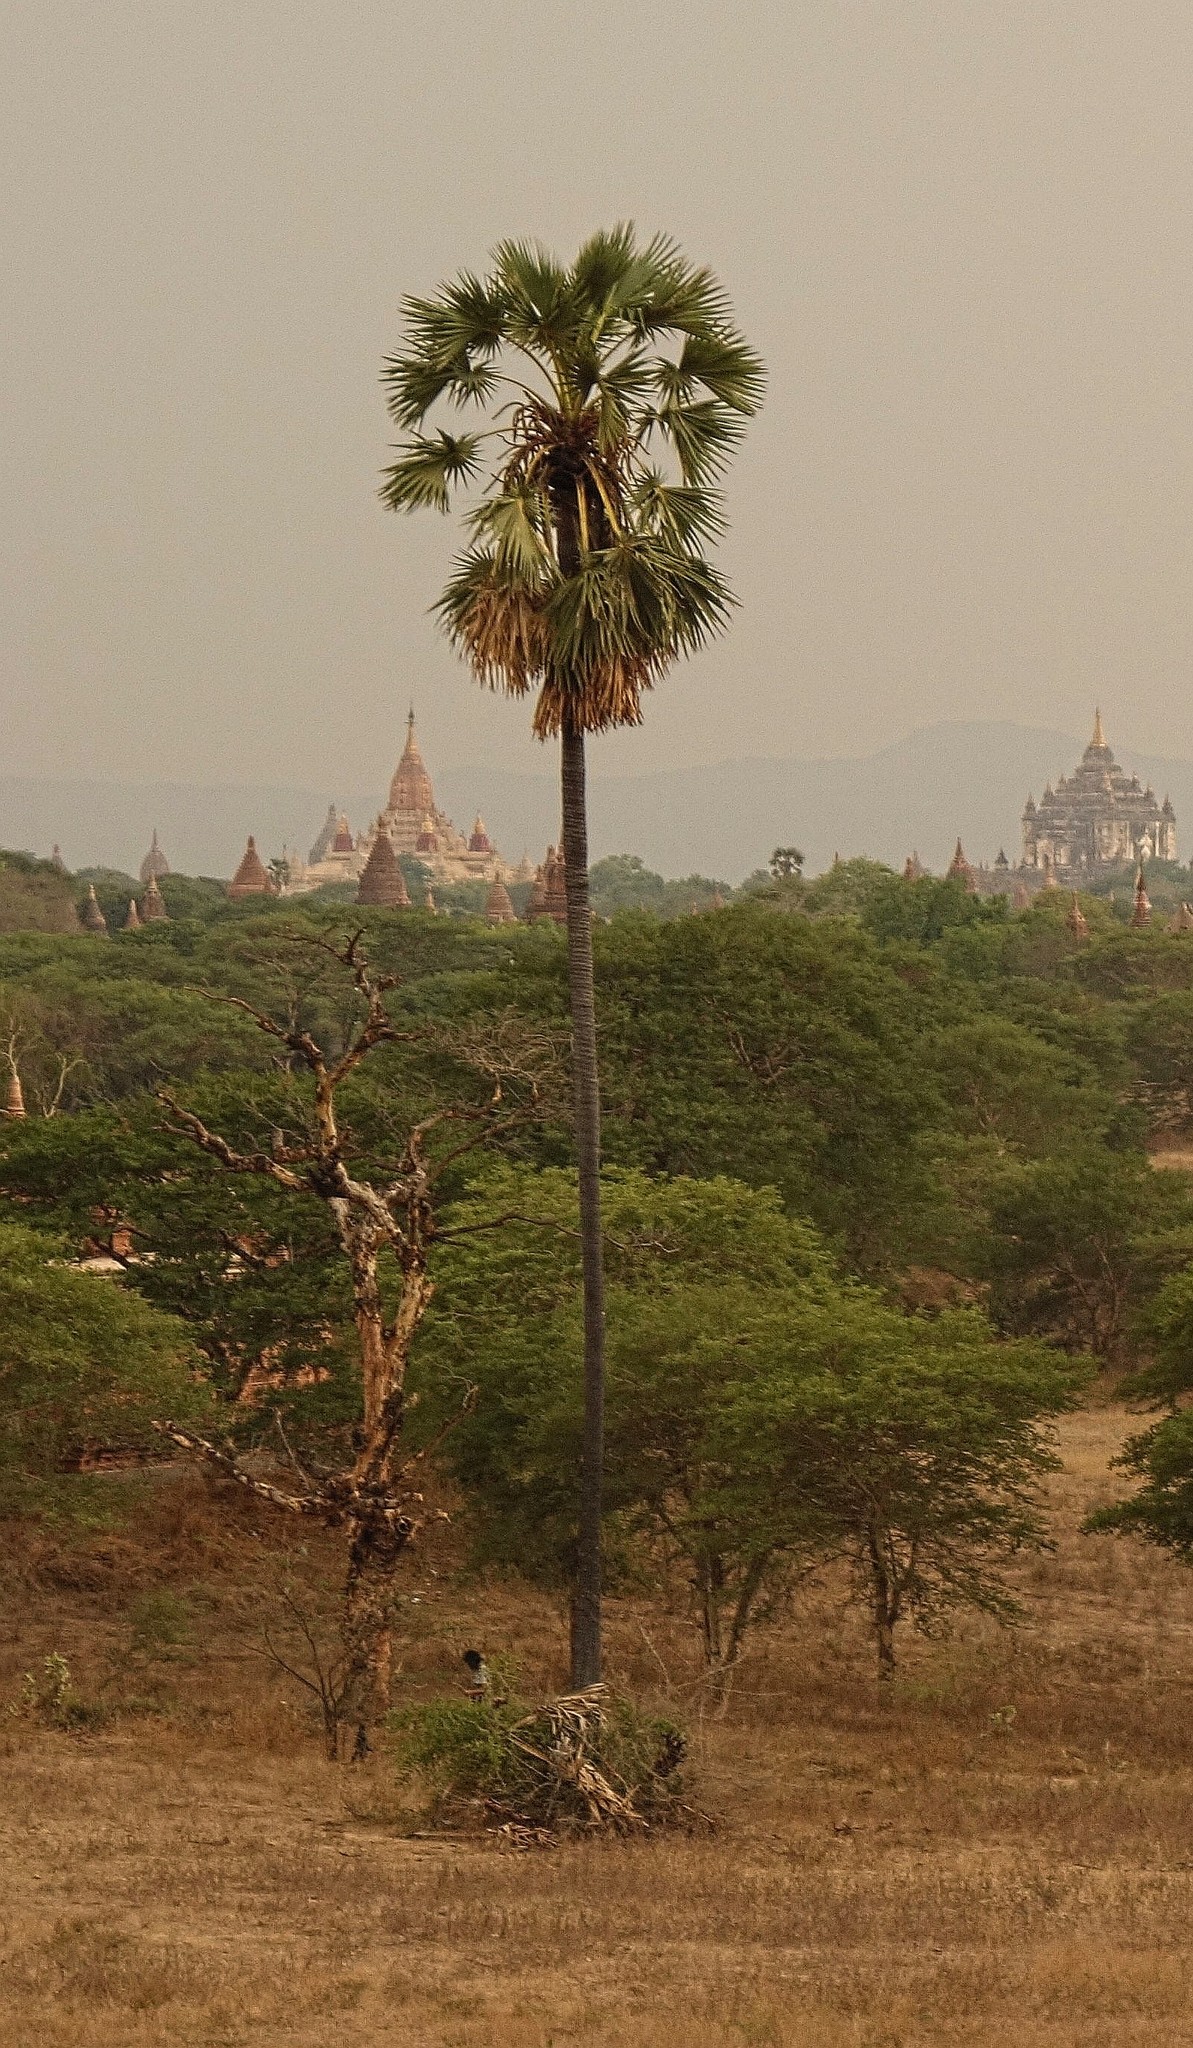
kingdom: Plantae
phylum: Tracheophyta
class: Liliopsida
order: Arecales
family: Arecaceae
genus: Borassus
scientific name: Borassus flabellifer
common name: Palmyra palm
